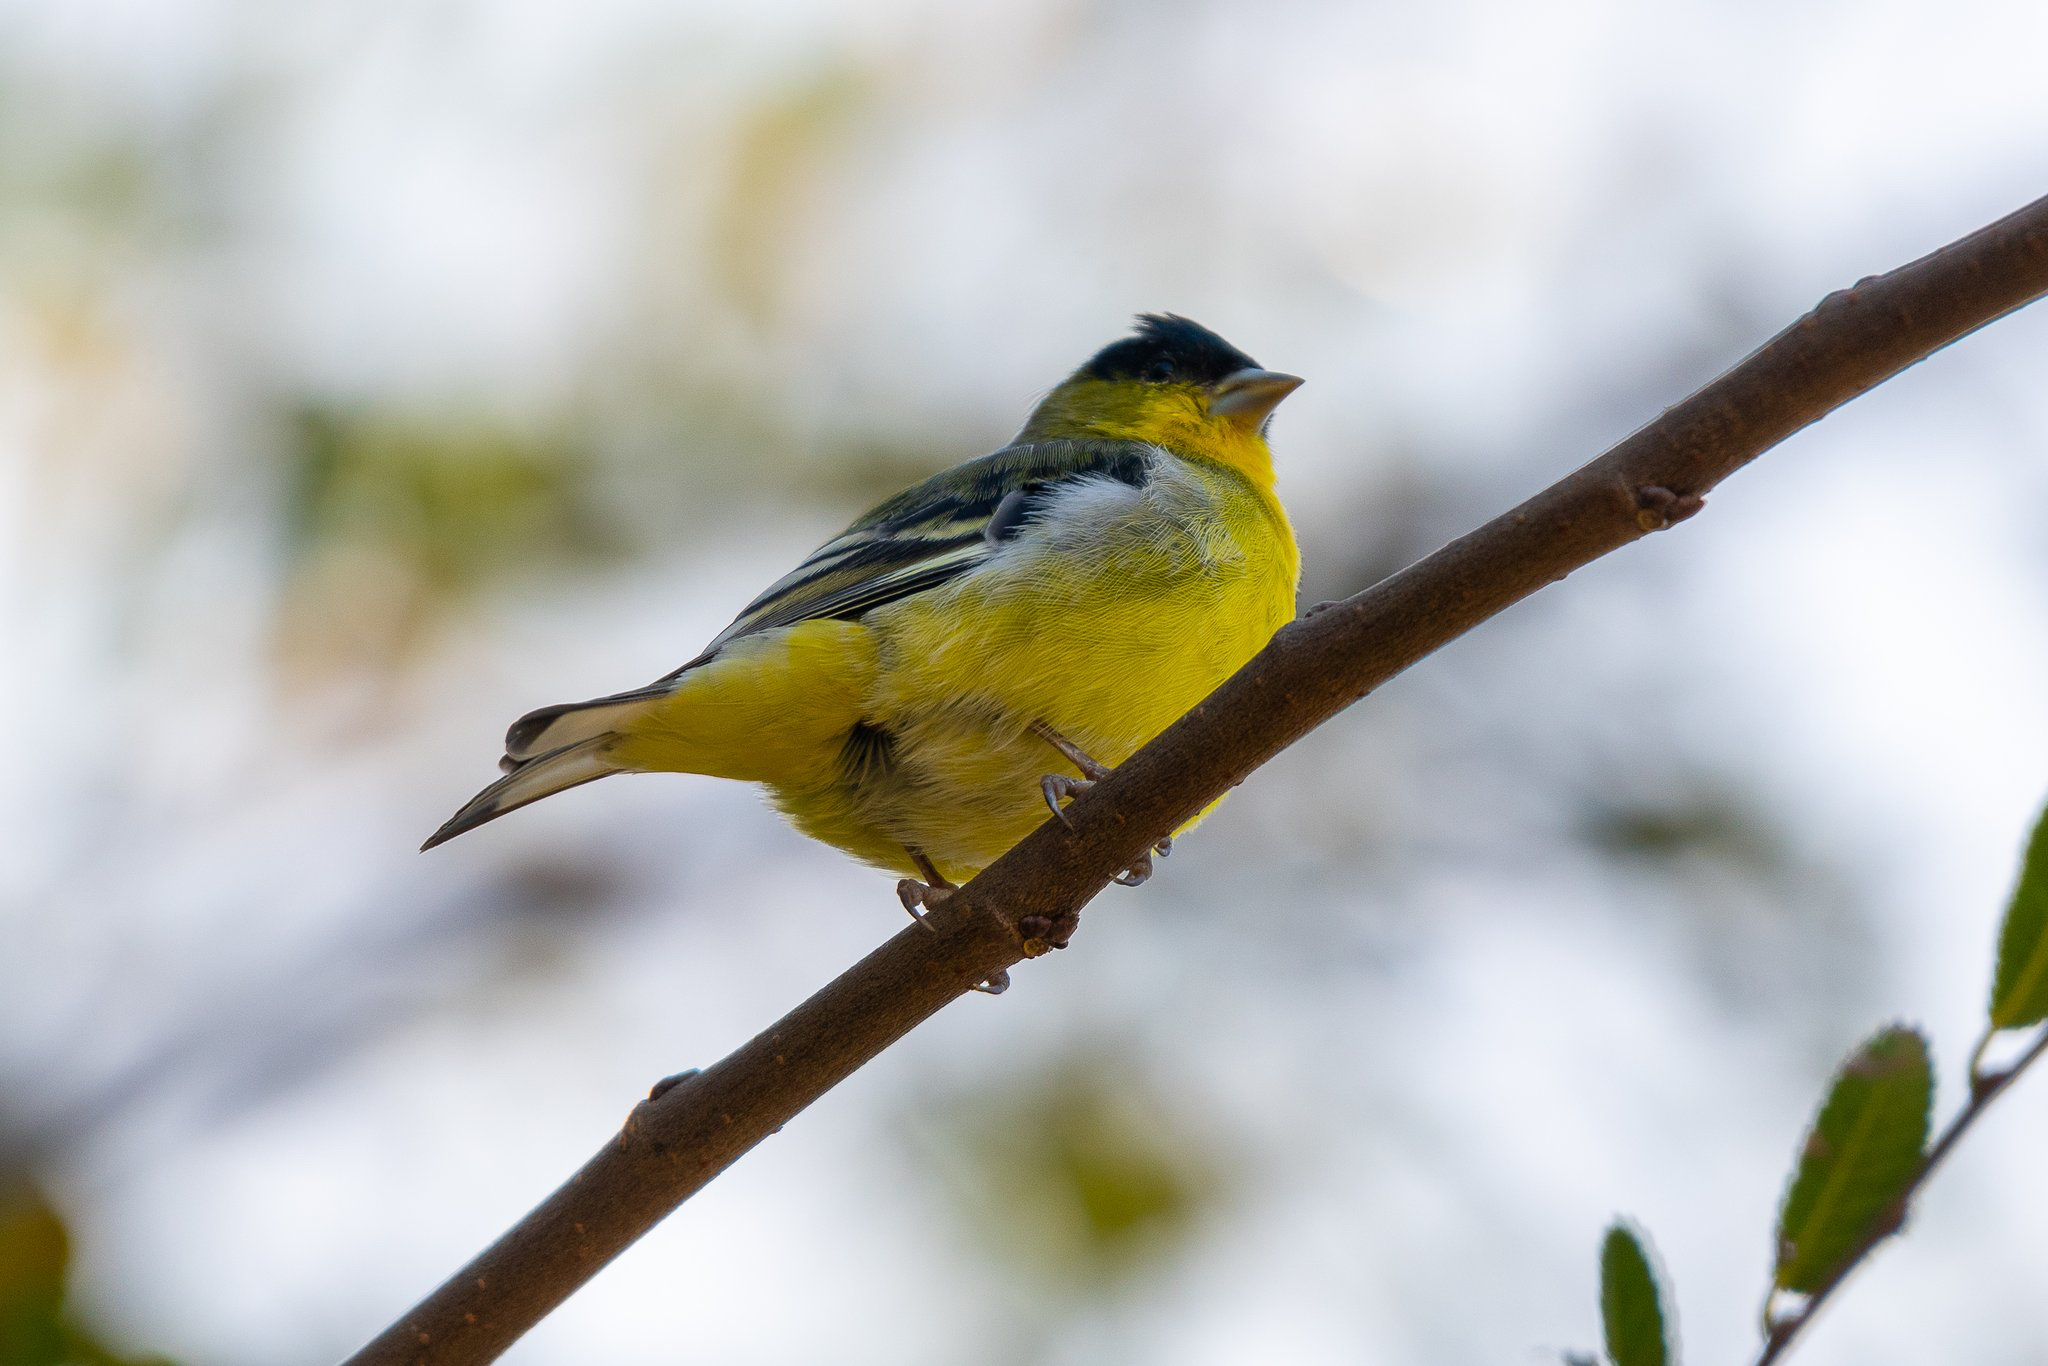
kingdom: Animalia
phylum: Chordata
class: Aves
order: Passeriformes
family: Fringillidae
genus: Spinus
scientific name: Spinus psaltria
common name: Lesser goldfinch
